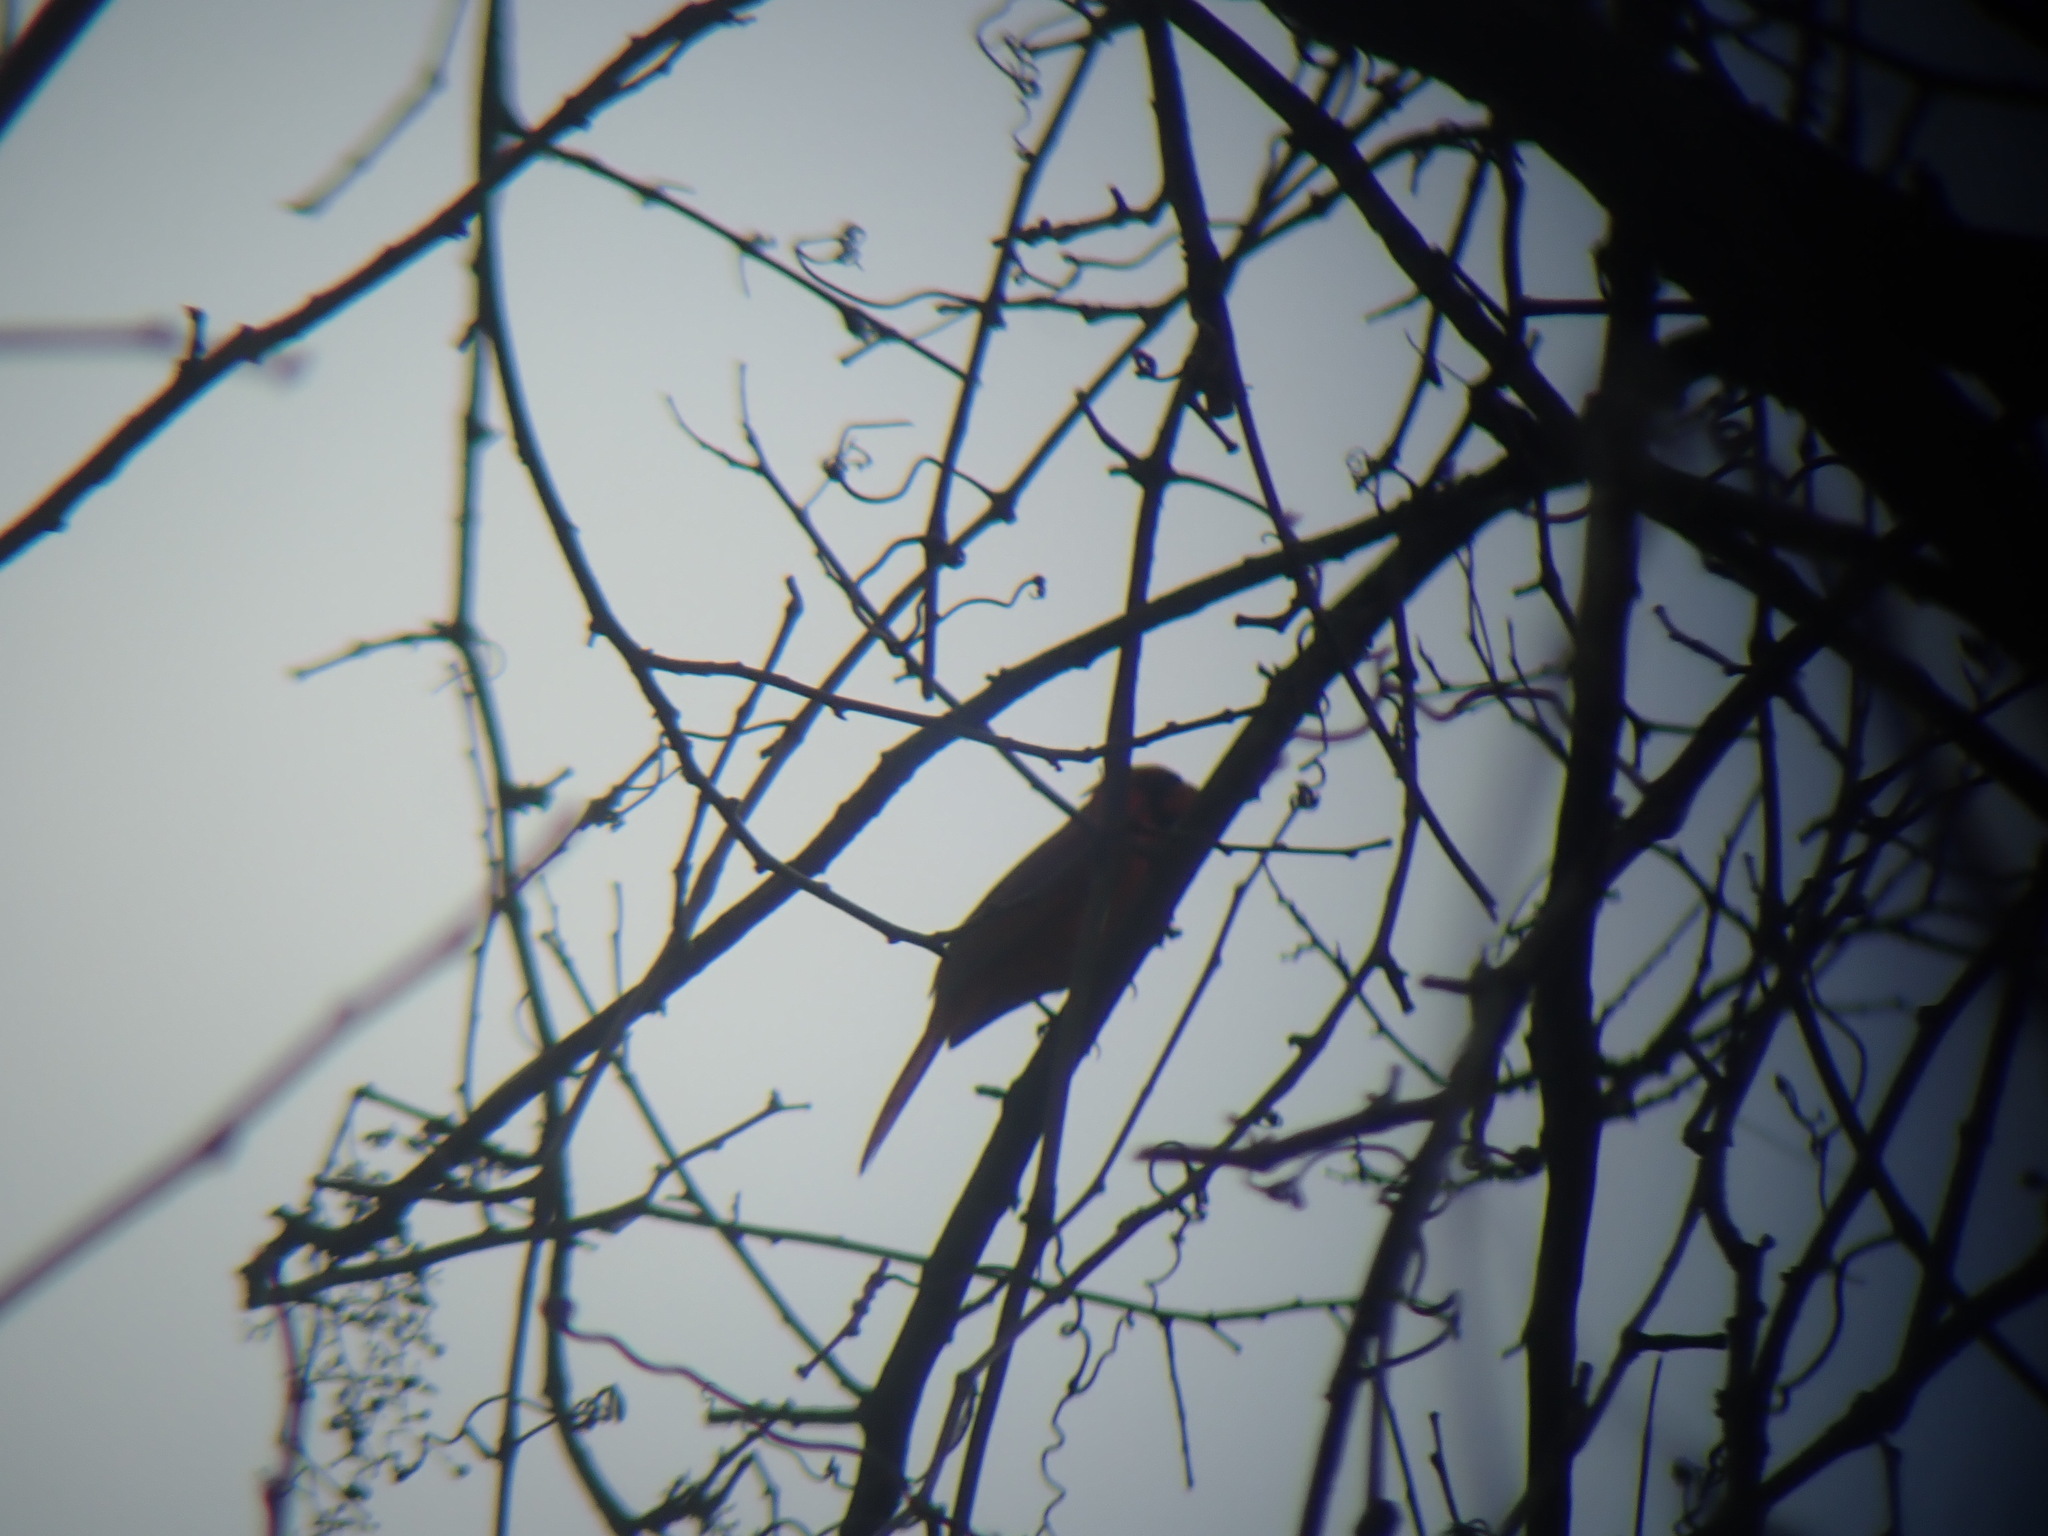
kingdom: Animalia
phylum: Chordata
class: Aves
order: Passeriformes
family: Cardinalidae
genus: Cardinalis
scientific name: Cardinalis cardinalis
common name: Northern cardinal
